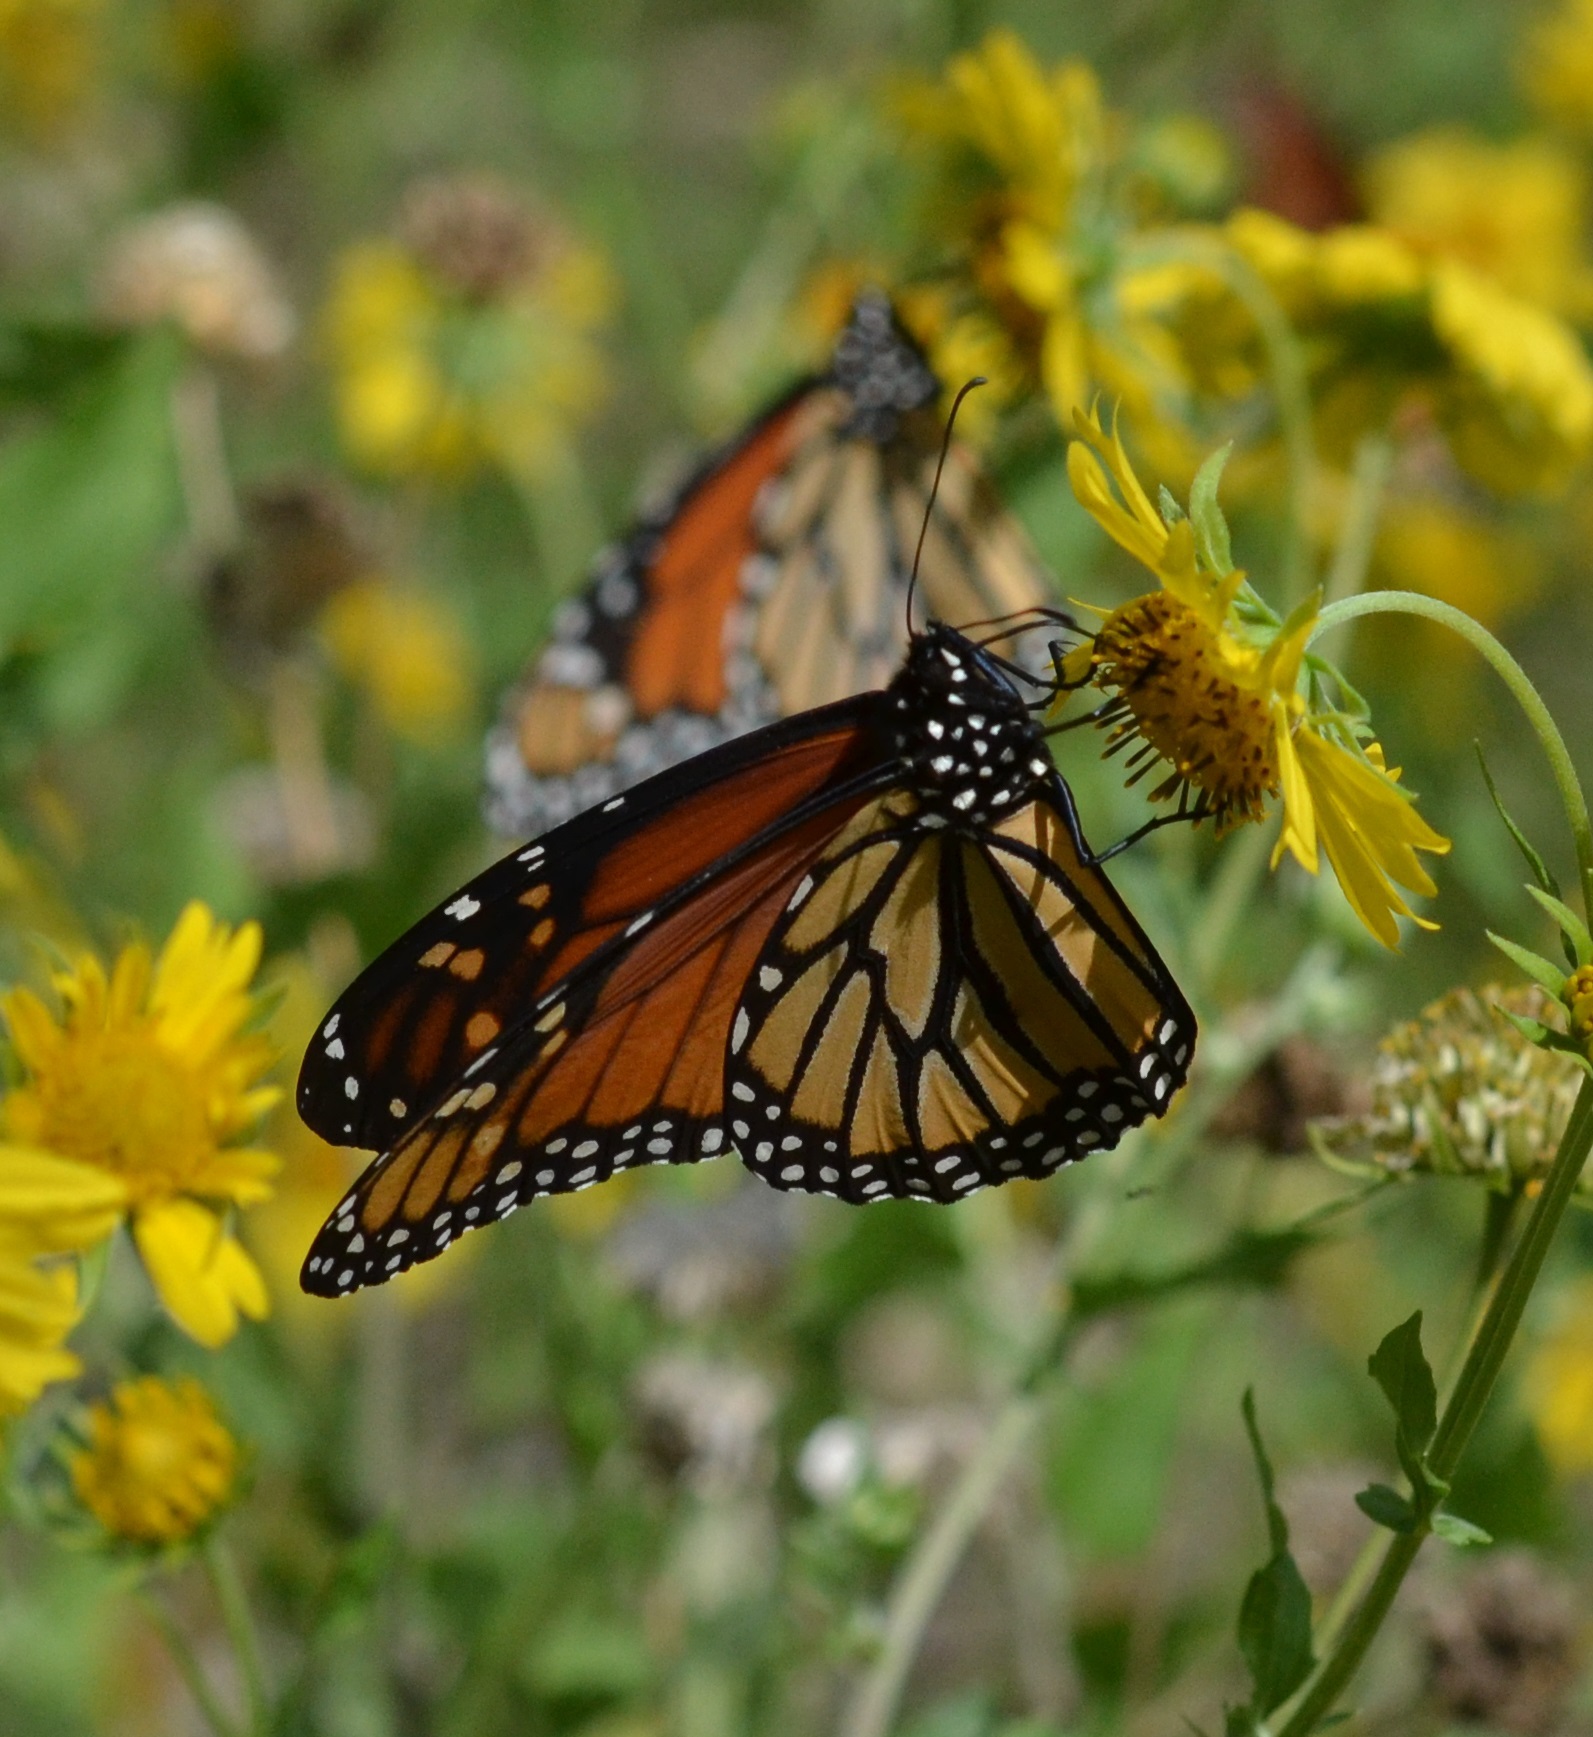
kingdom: Animalia
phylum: Arthropoda
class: Insecta
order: Lepidoptera
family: Nymphalidae
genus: Danaus
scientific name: Danaus plexippus
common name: Monarch
